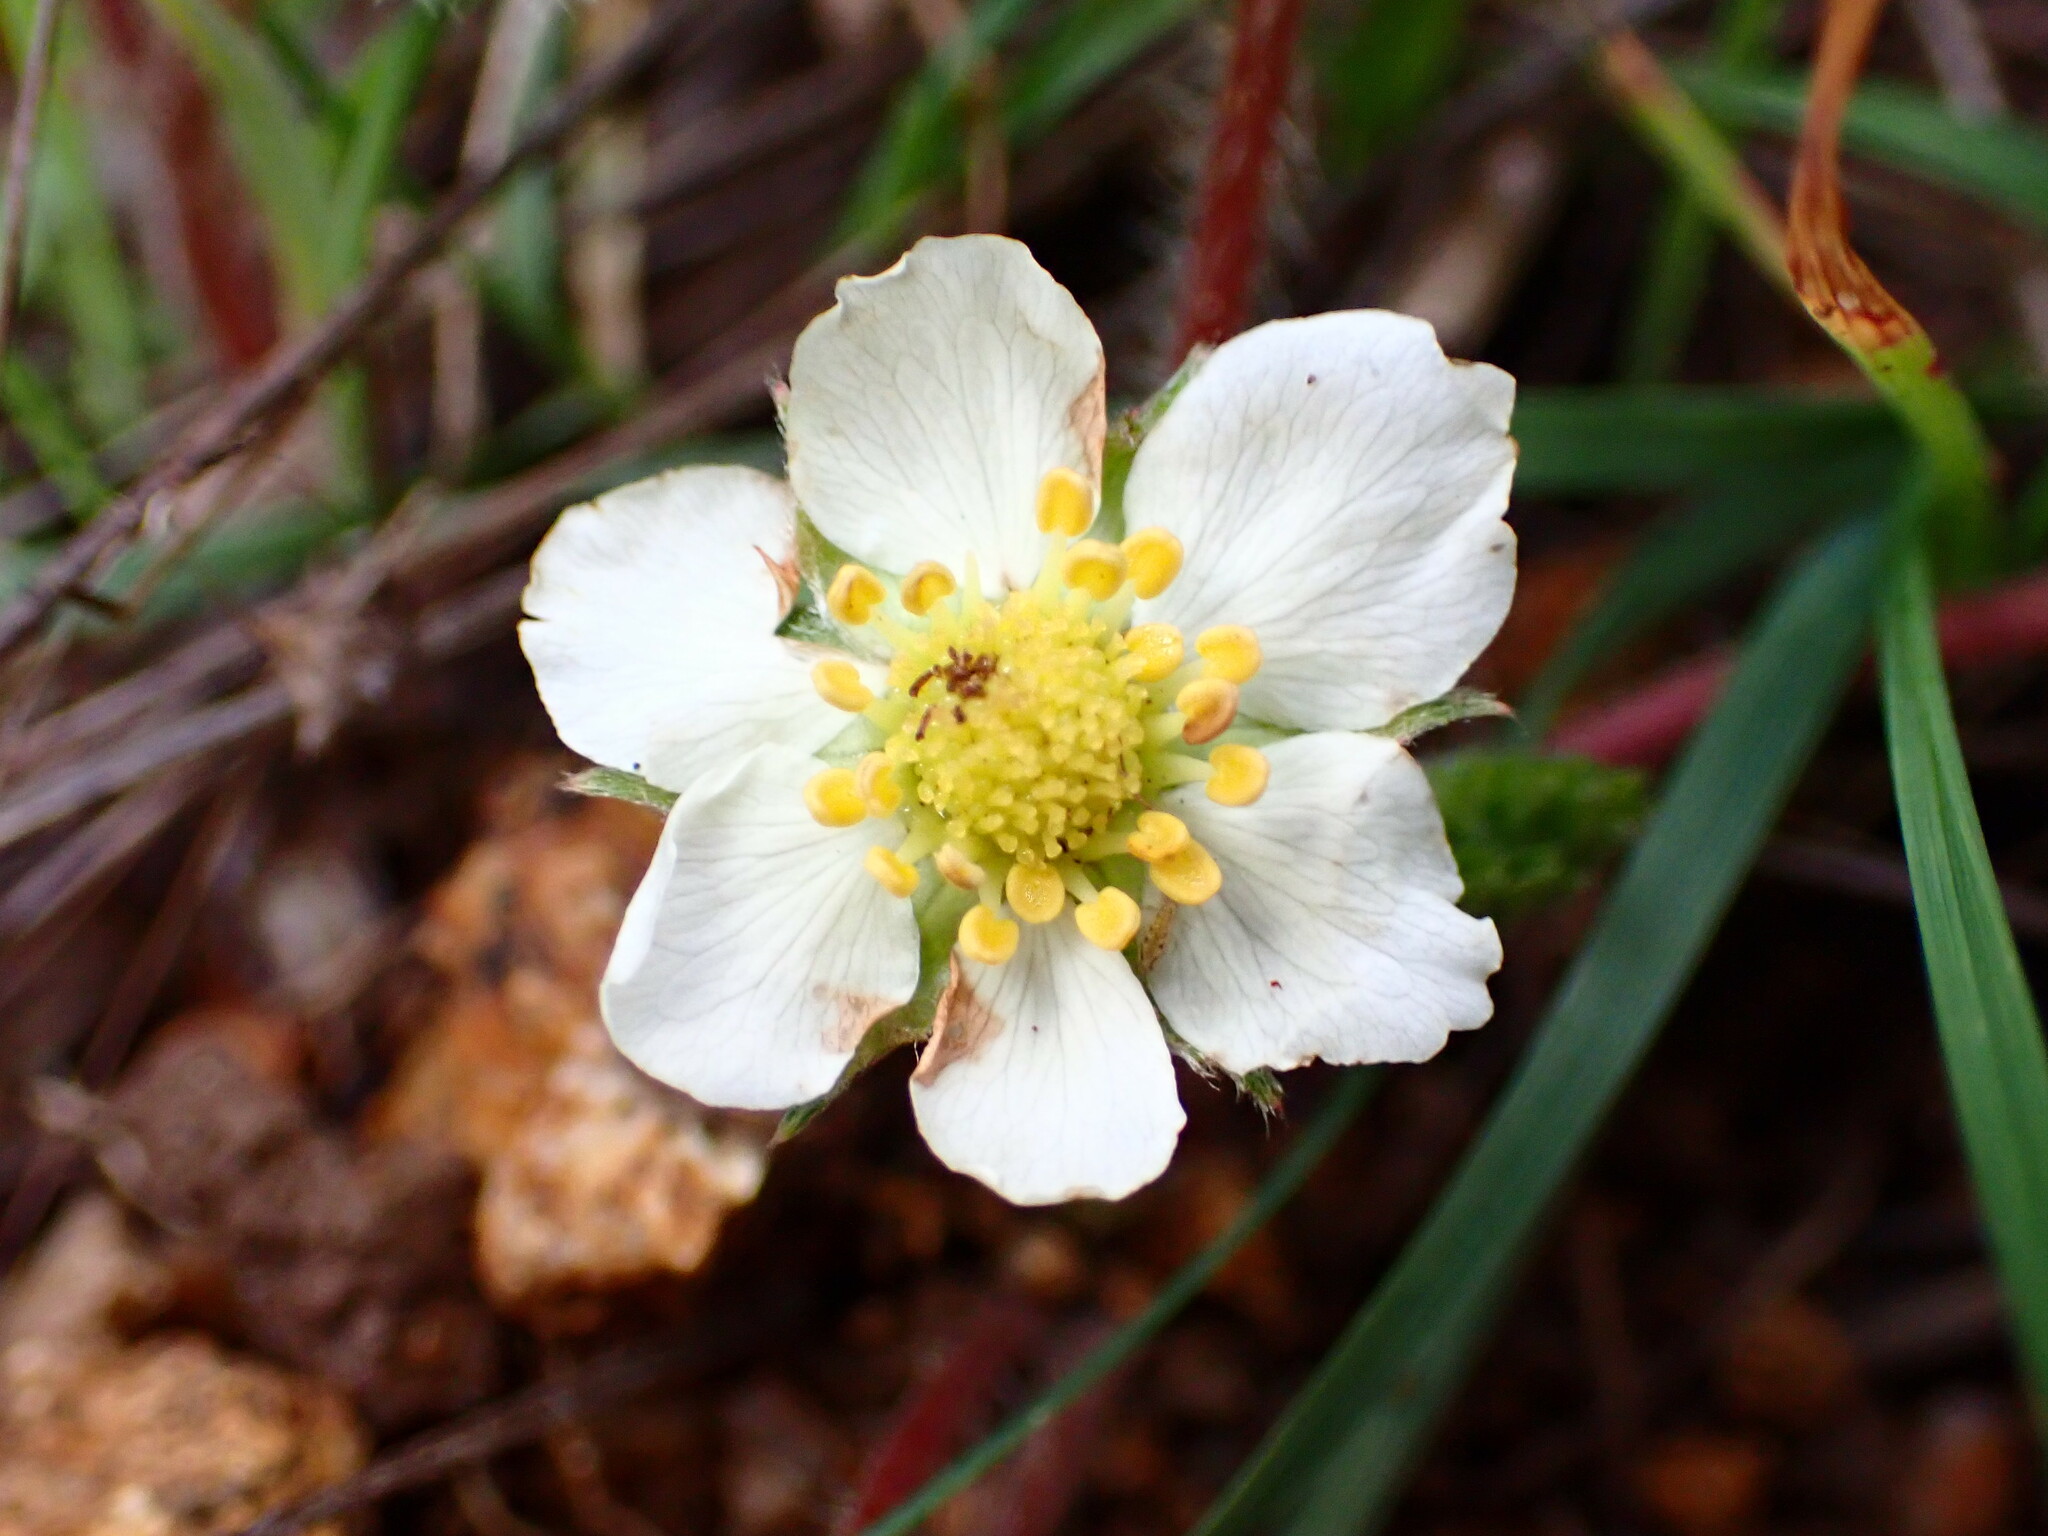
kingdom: Plantae
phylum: Tracheophyta
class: Magnoliopsida
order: Rosales
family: Rosaceae
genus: Fragaria
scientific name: Fragaria vesca
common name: Wild strawberry
